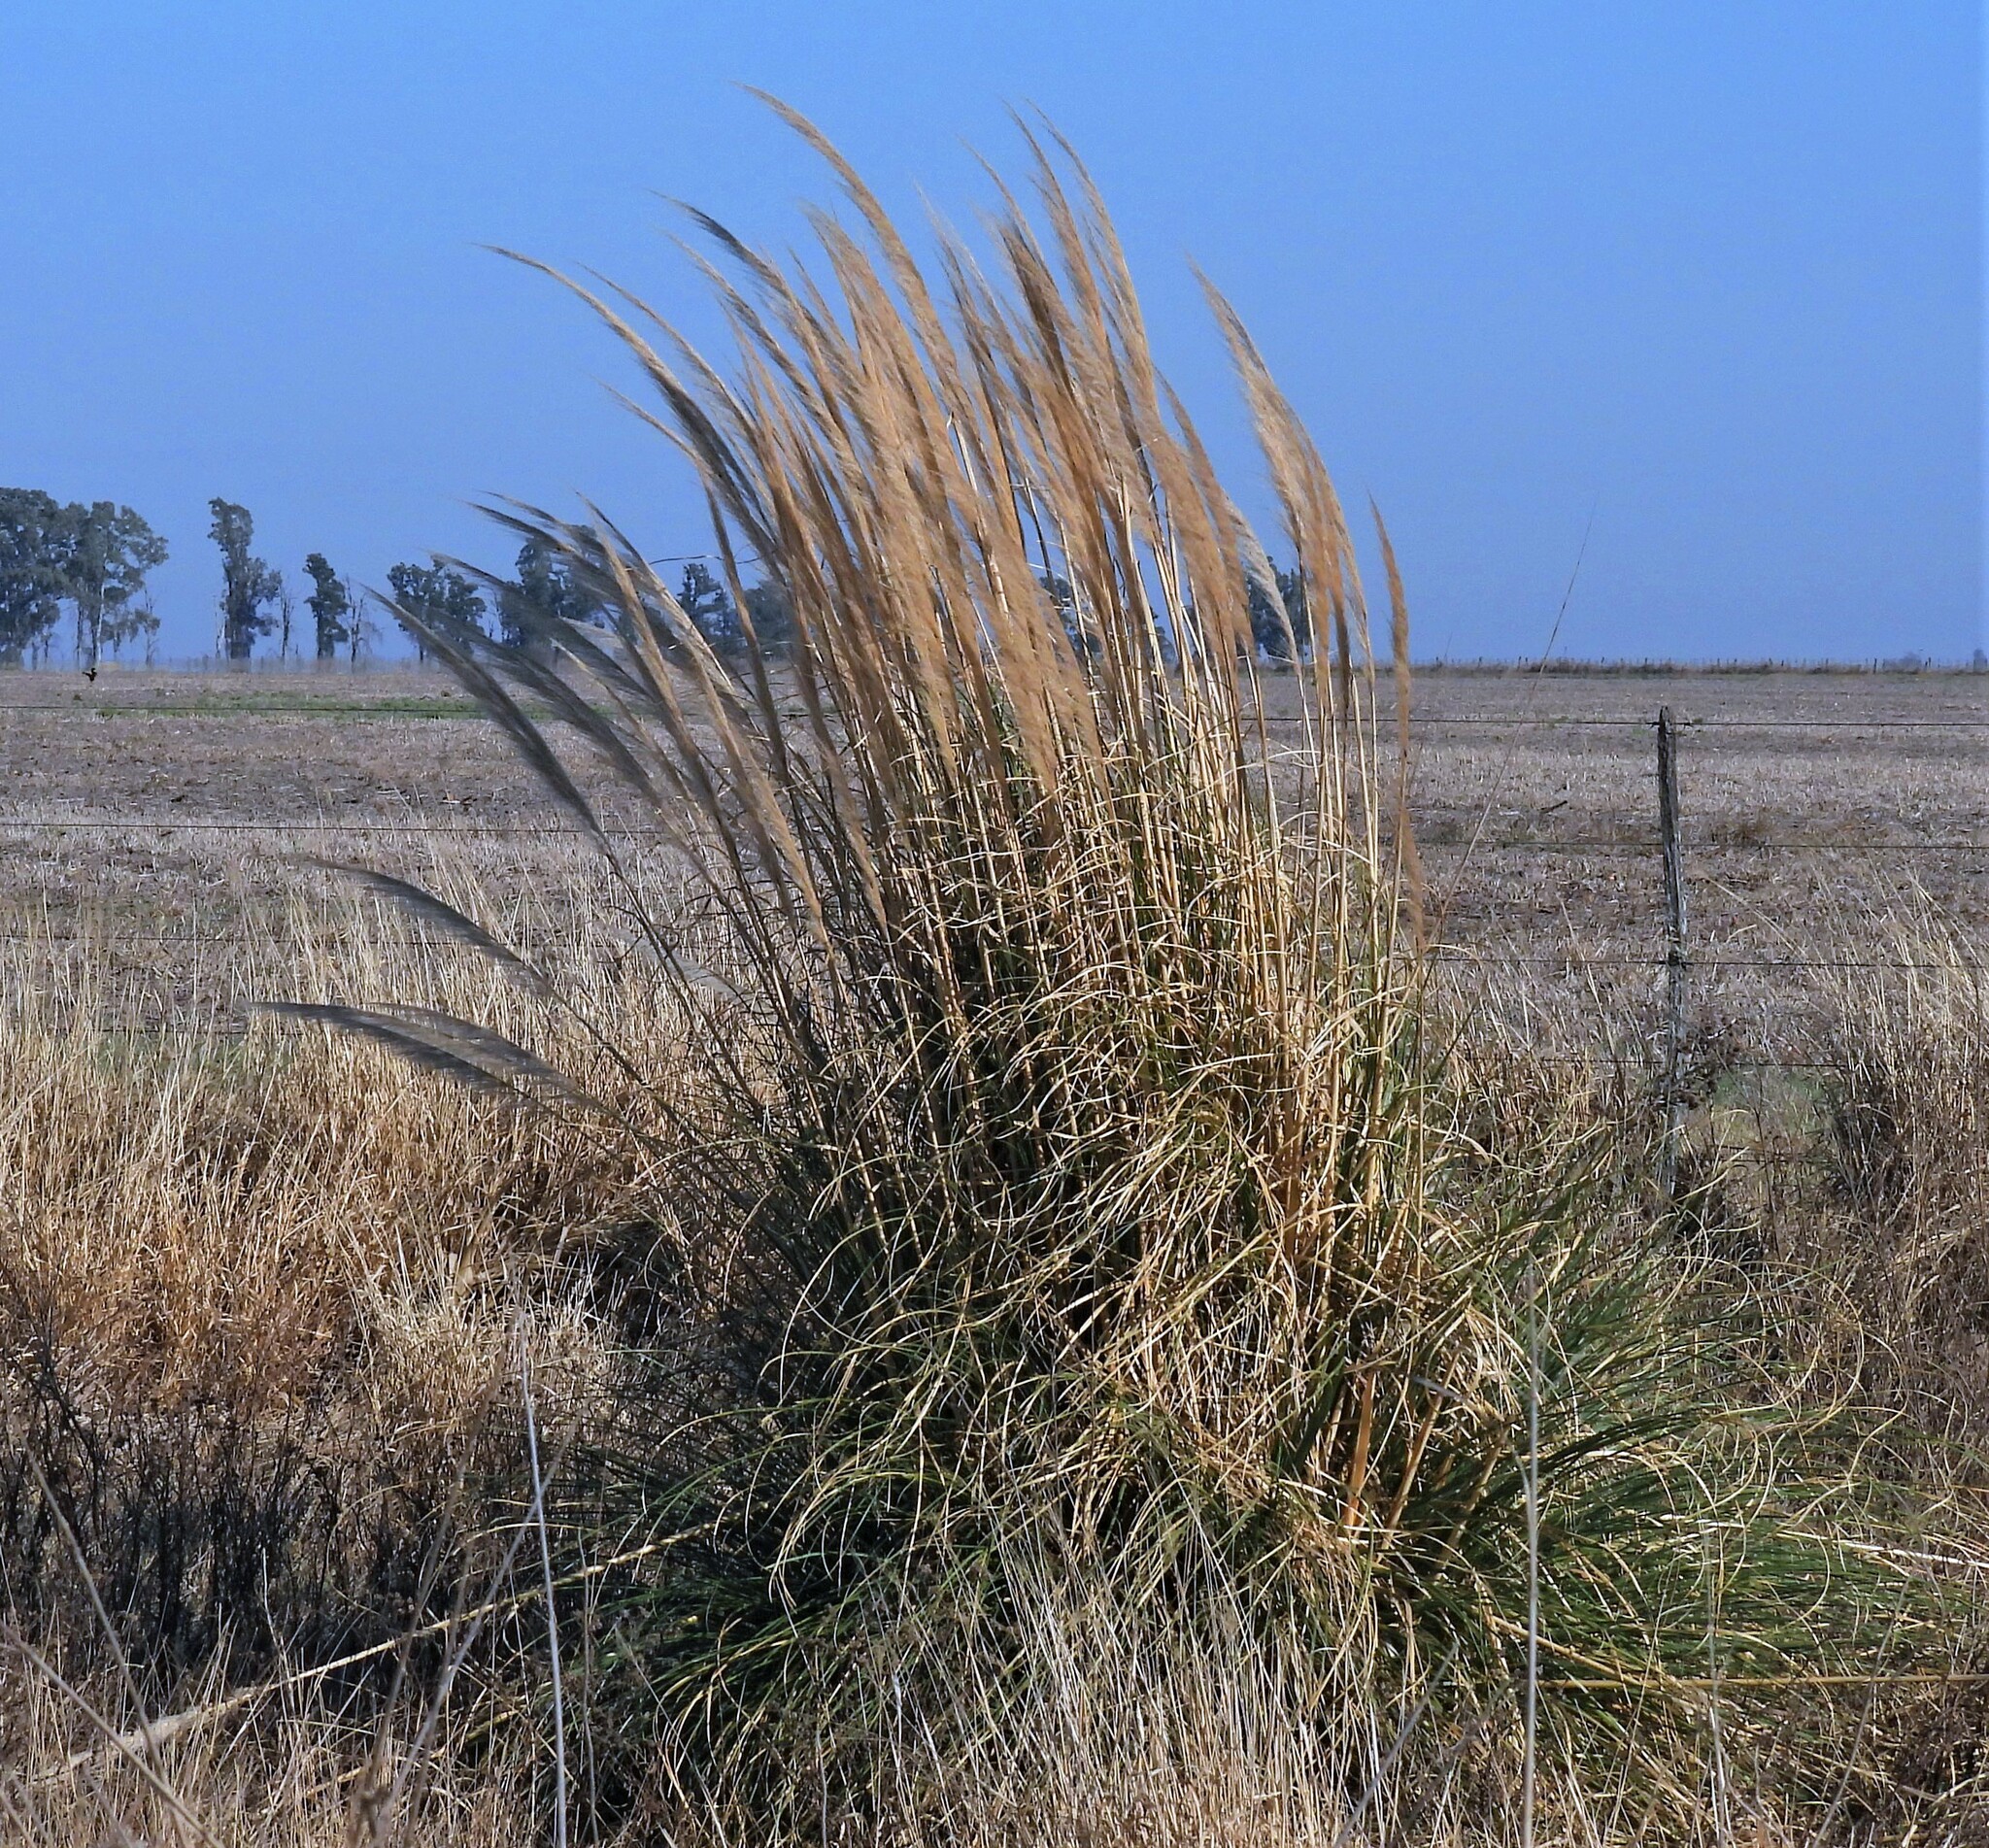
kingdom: Plantae
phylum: Tracheophyta
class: Liliopsida
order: Poales
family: Poaceae
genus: Cortaderia
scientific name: Cortaderia selloana
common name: Uruguayan pampas grass
